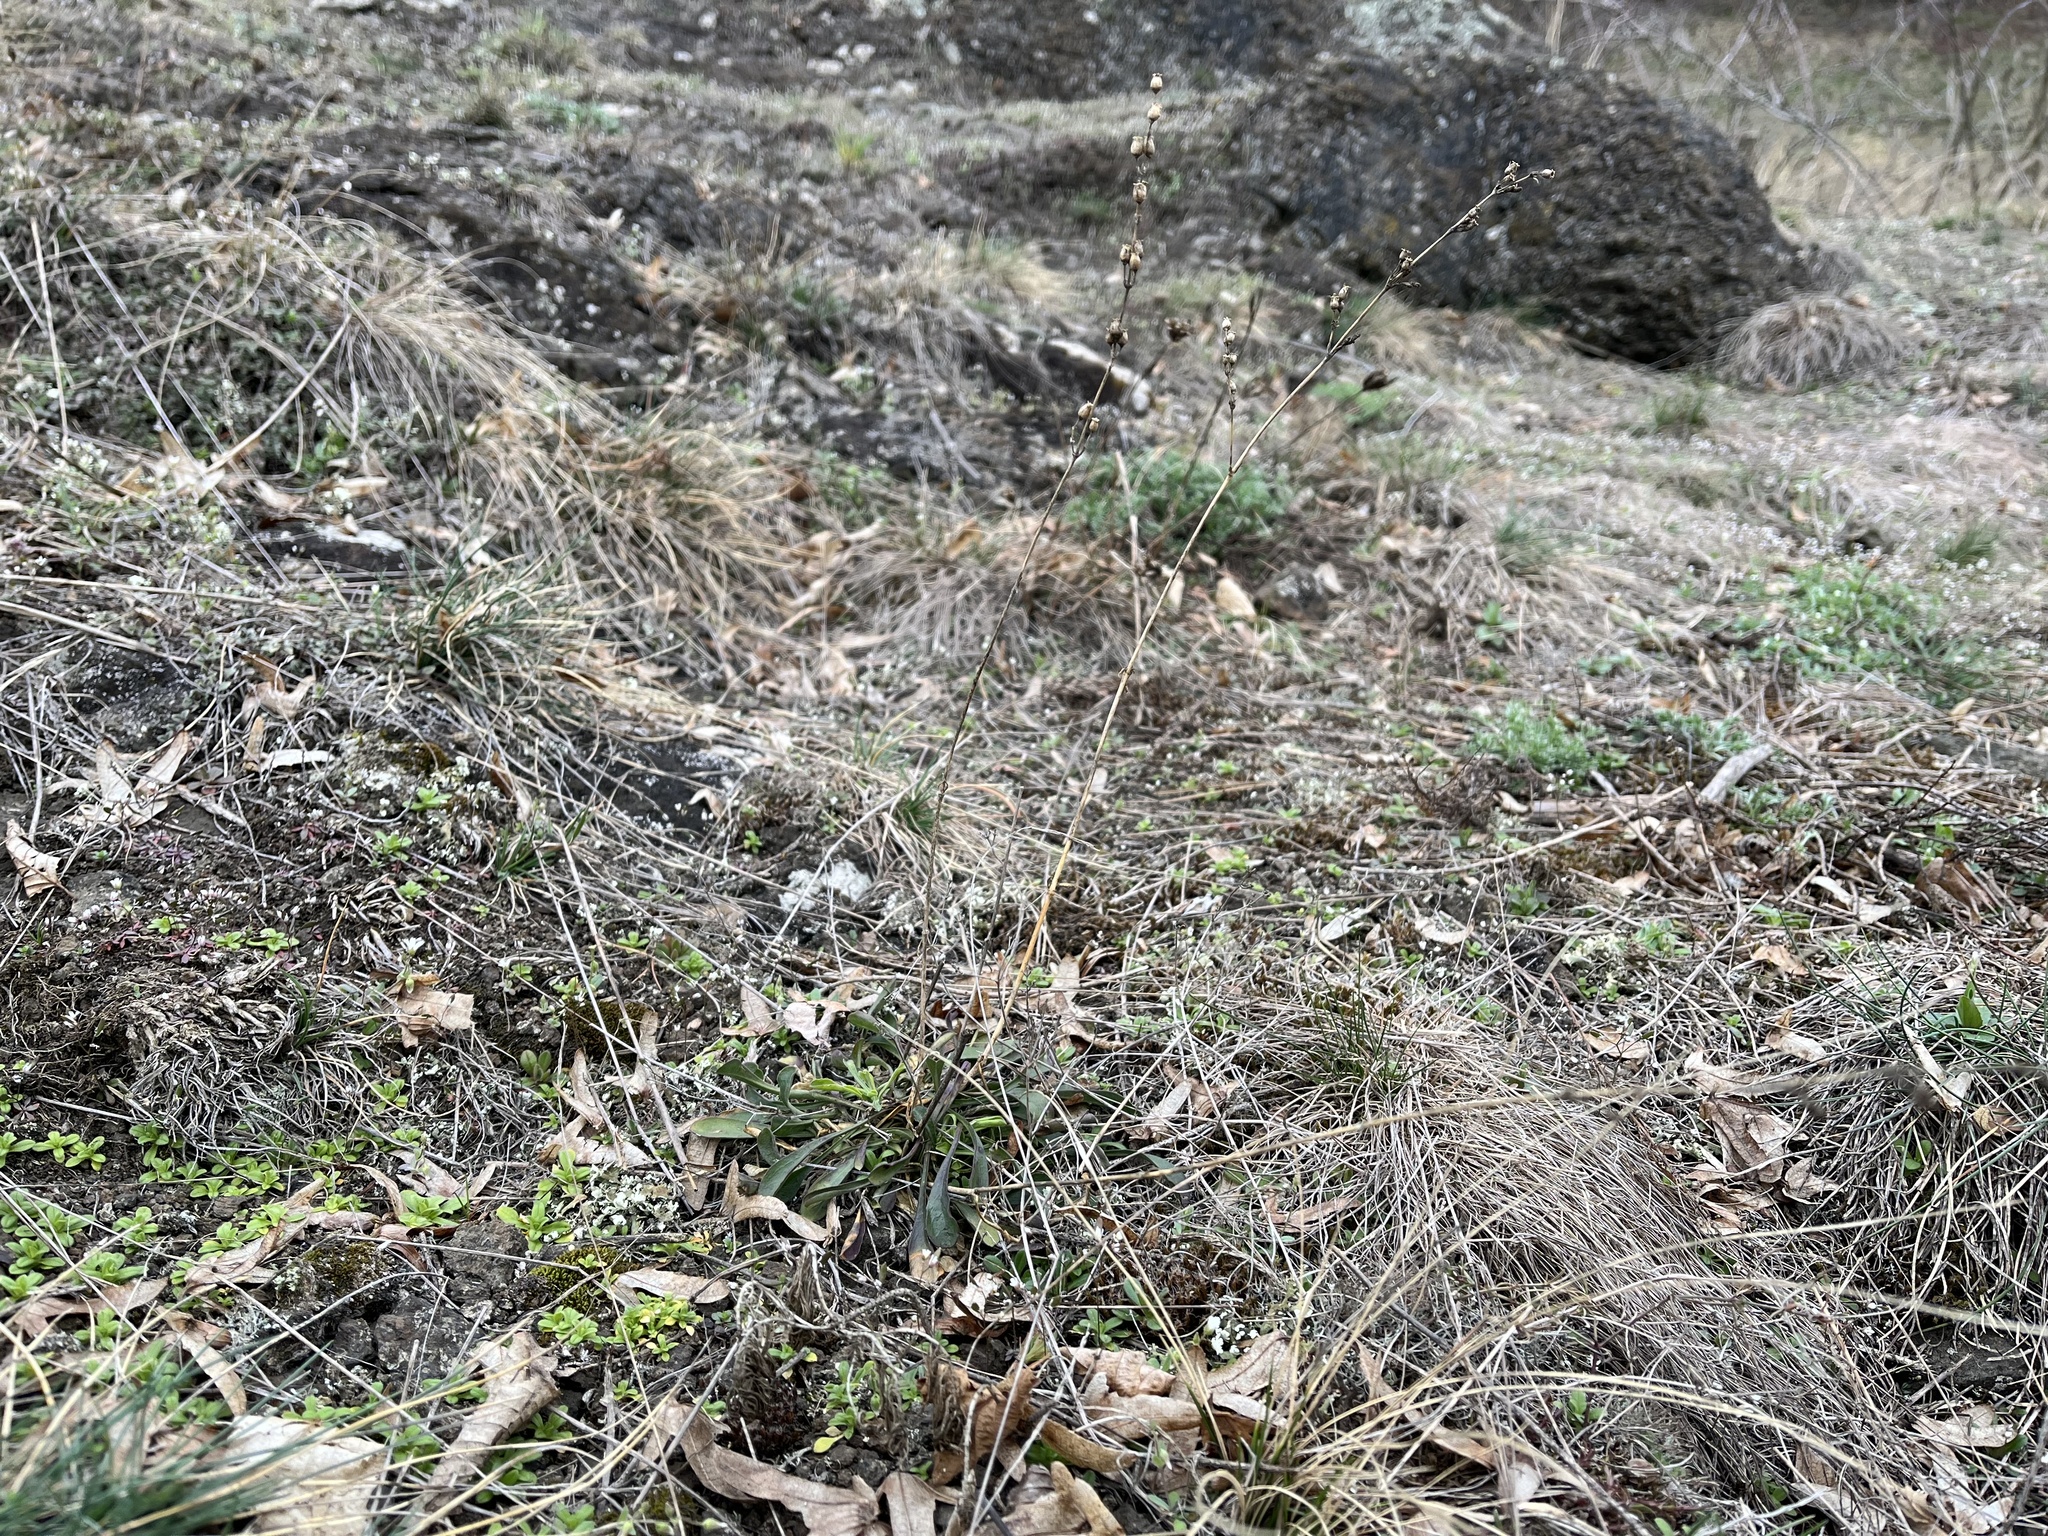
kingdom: Plantae
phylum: Tracheophyta
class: Magnoliopsida
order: Caryophyllales
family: Caryophyllaceae
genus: Silene
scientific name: Silene otites
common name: Spanish catchfly
